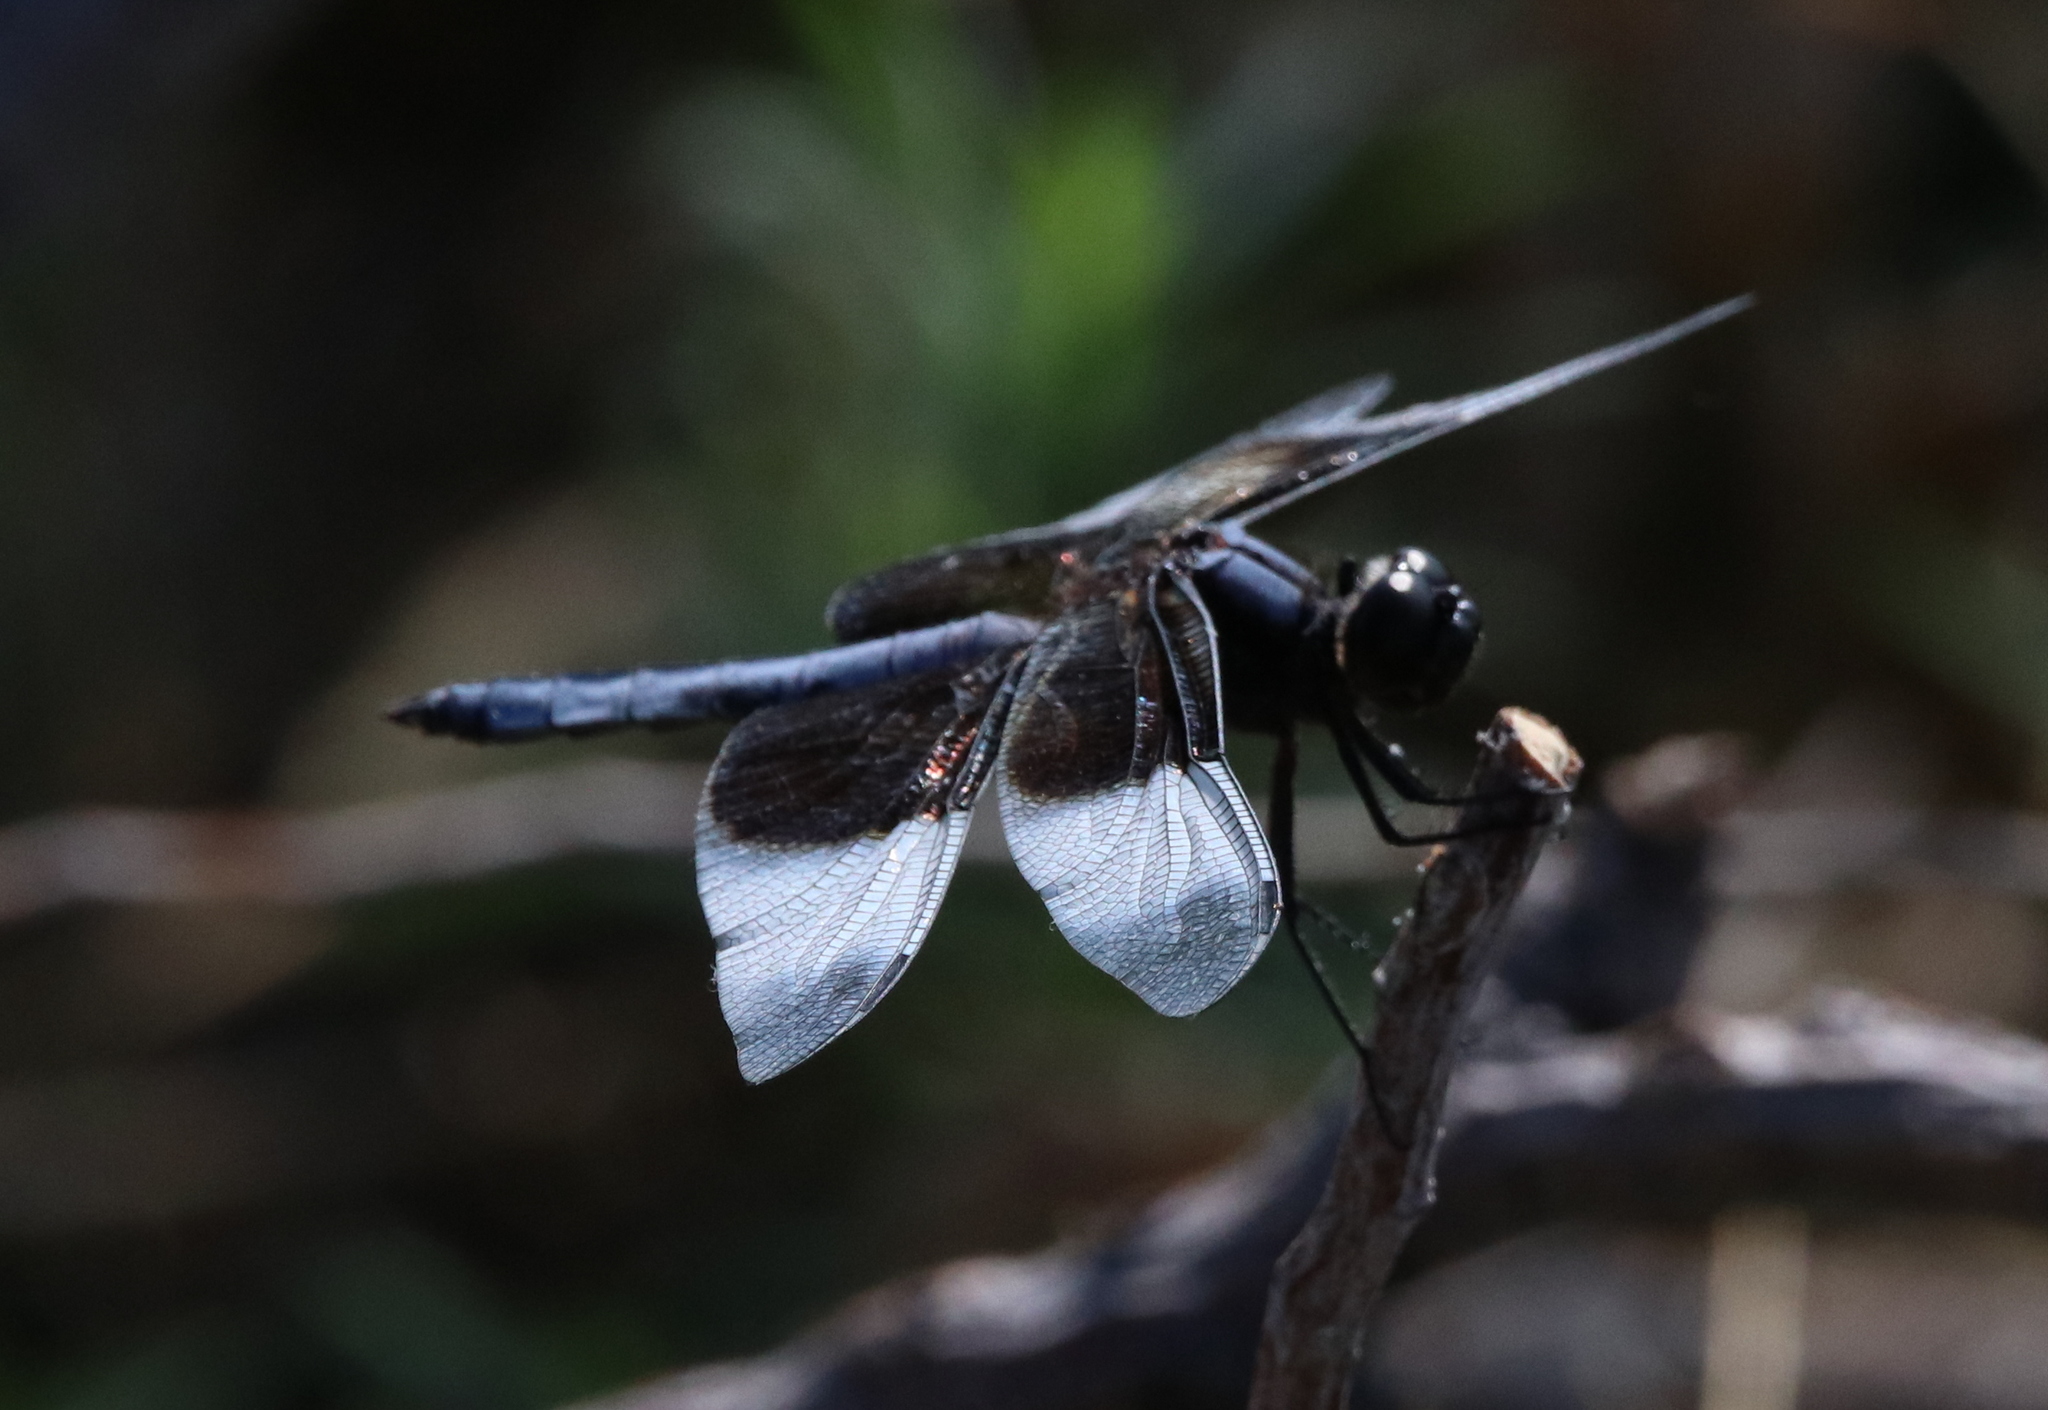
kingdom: Animalia
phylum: Arthropoda
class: Insecta
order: Odonata
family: Libellulidae
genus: Libellula
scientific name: Libellula luctuosa
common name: Widow skimmer
